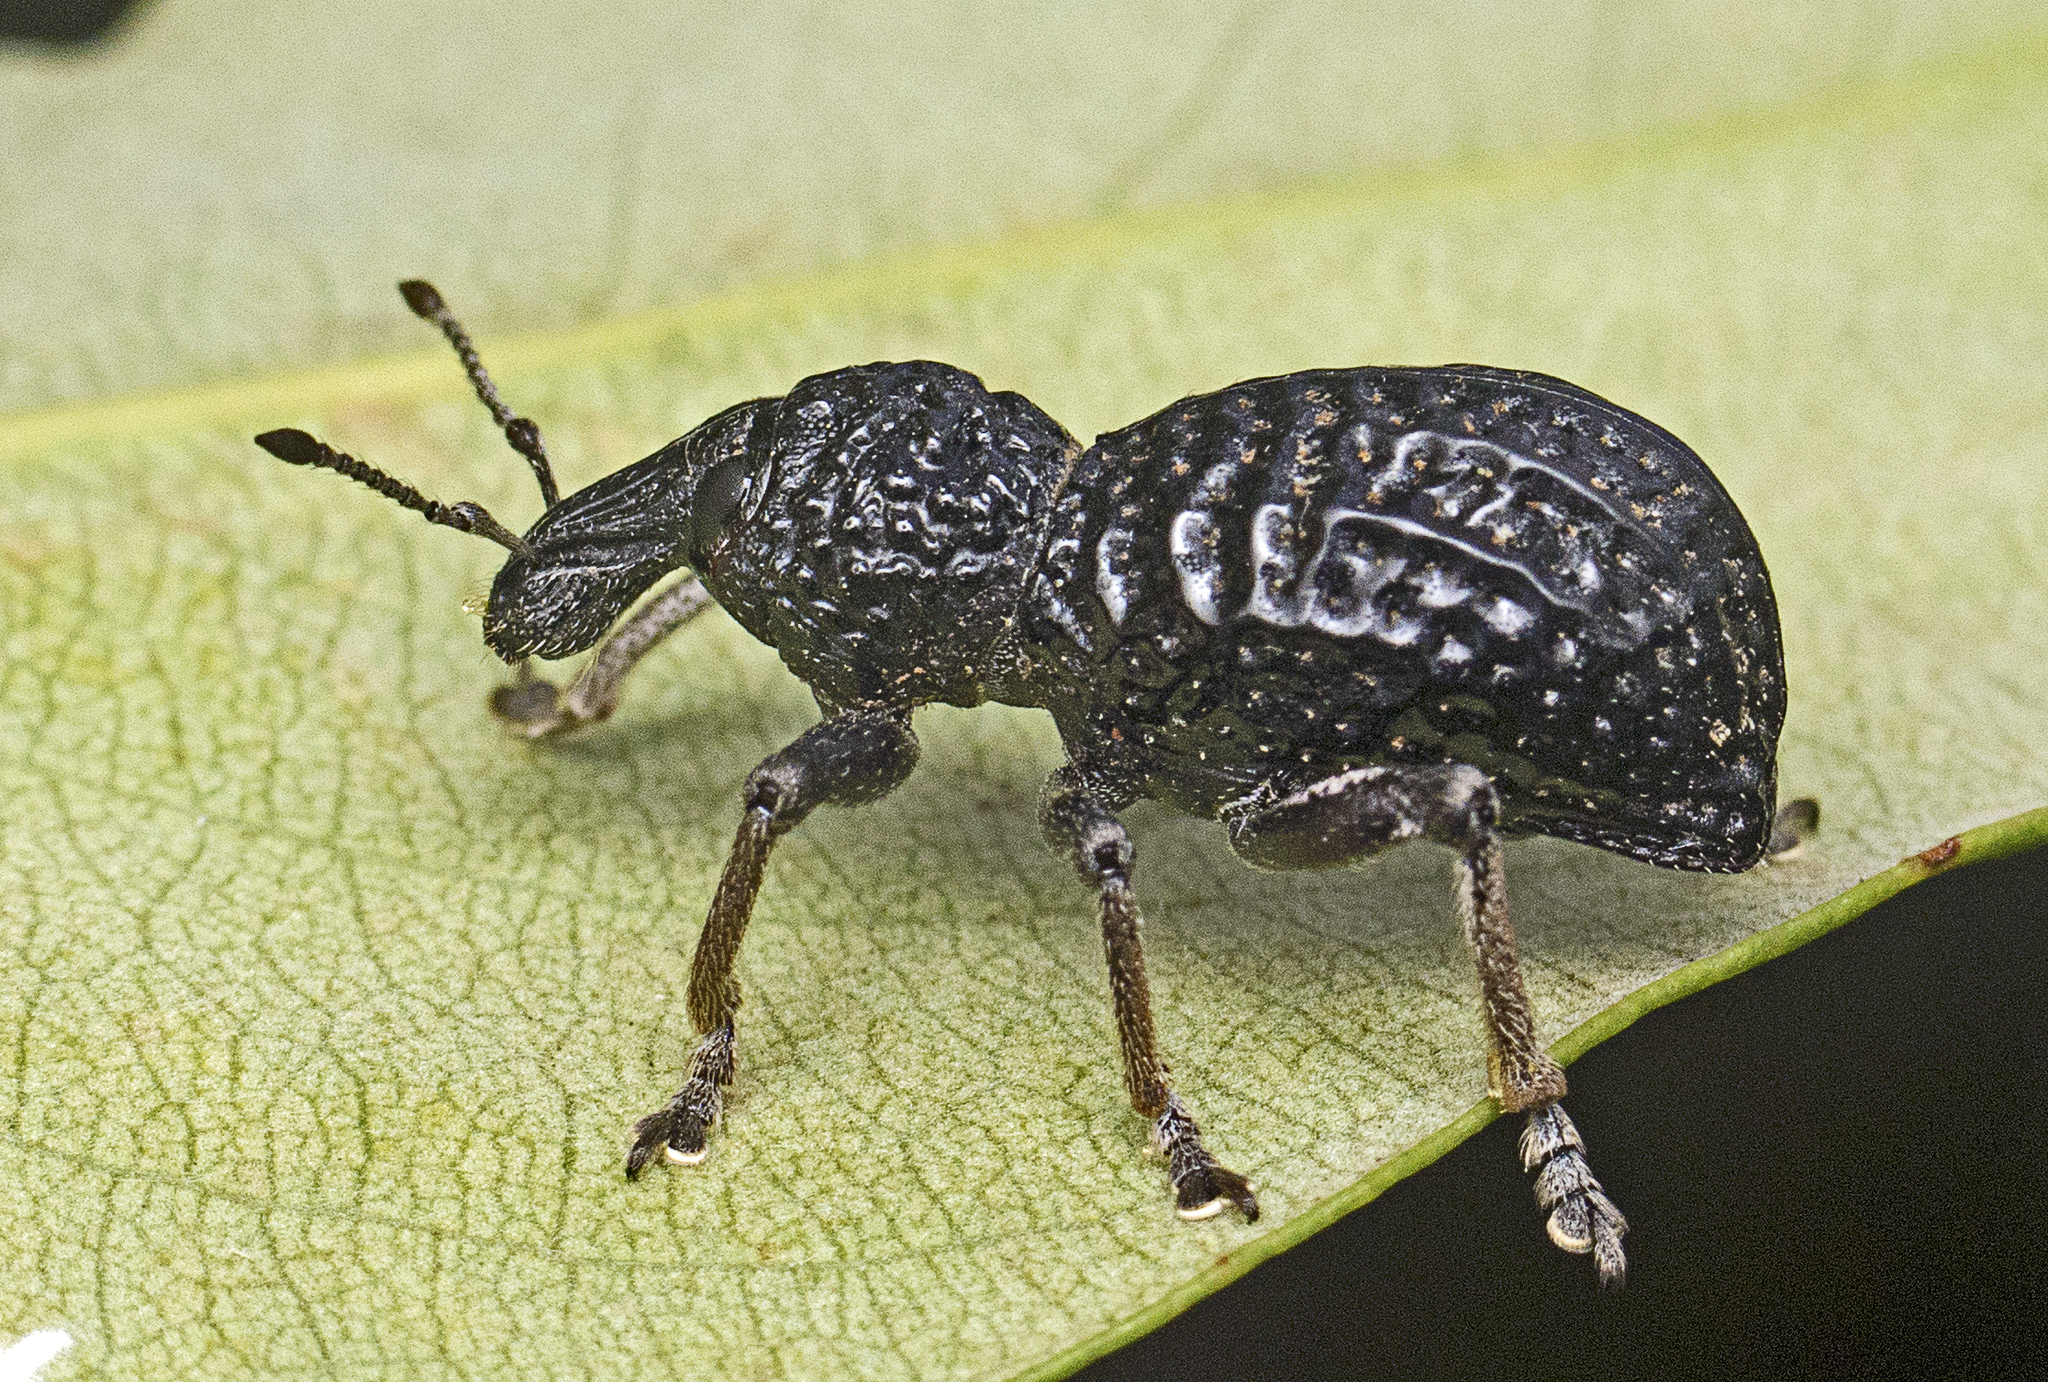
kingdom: Animalia
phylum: Arthropoda
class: Insecta
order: Coleoptera
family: Curculionidae
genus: Zymaus
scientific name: Zymaus angustus
